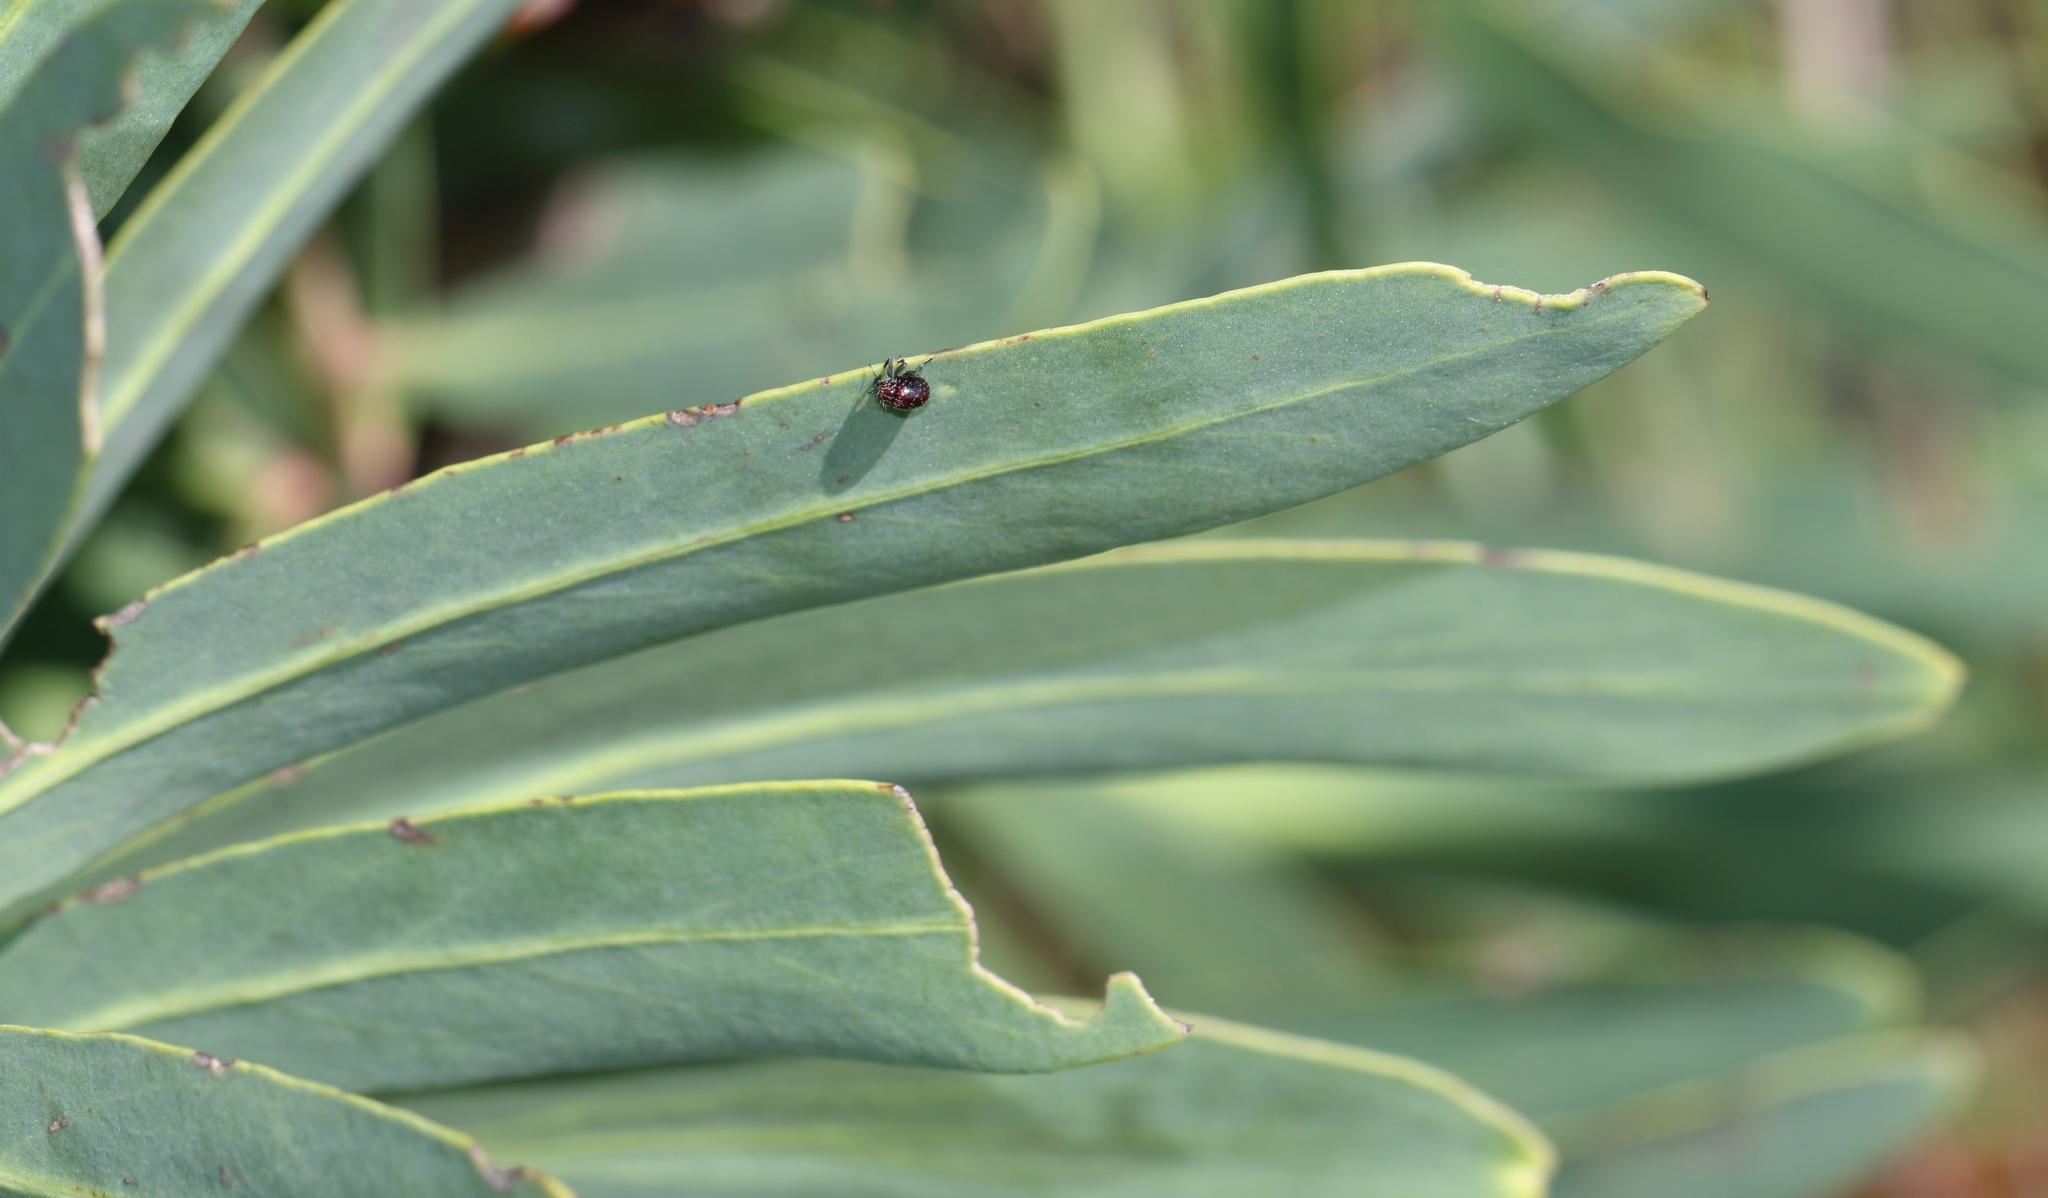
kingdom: Plantae
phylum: Tracheophyta
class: Magnoliopsida
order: Proteales
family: Proteaceae
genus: Protea
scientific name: Protea caffra
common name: Common sugarbush
